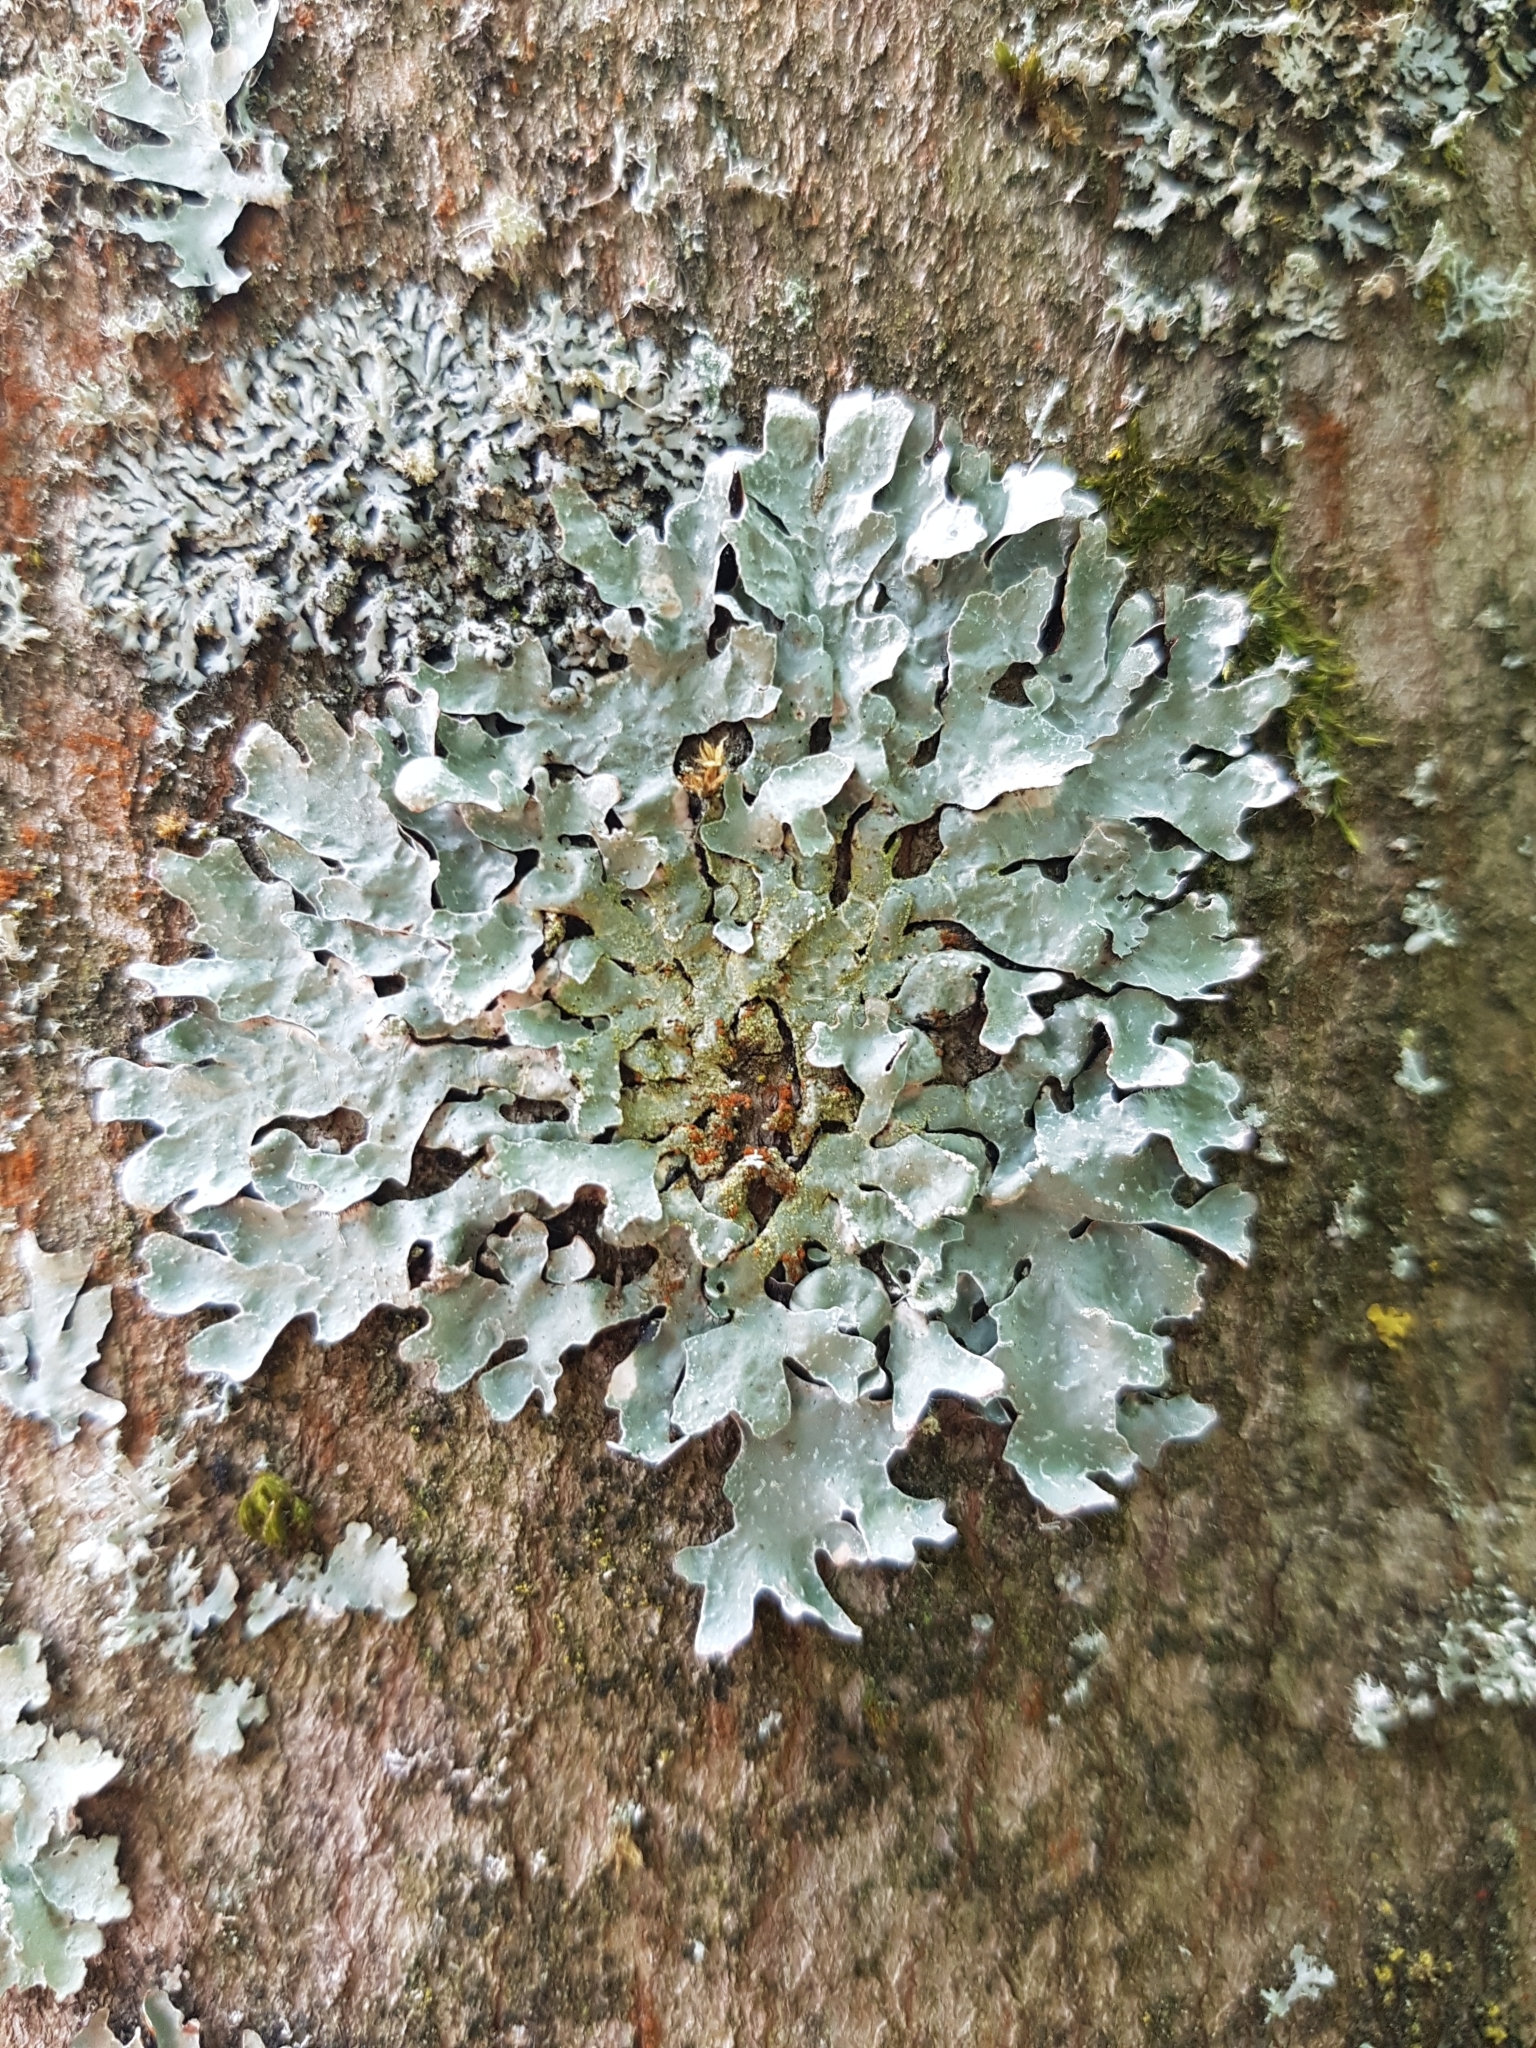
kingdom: Fungi
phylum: Ascomycota
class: Lecanoromycetes
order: Lecanorales
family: Parmeliaceae
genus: Parmelia
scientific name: Parmelia sulcata
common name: Netted shield lichen
